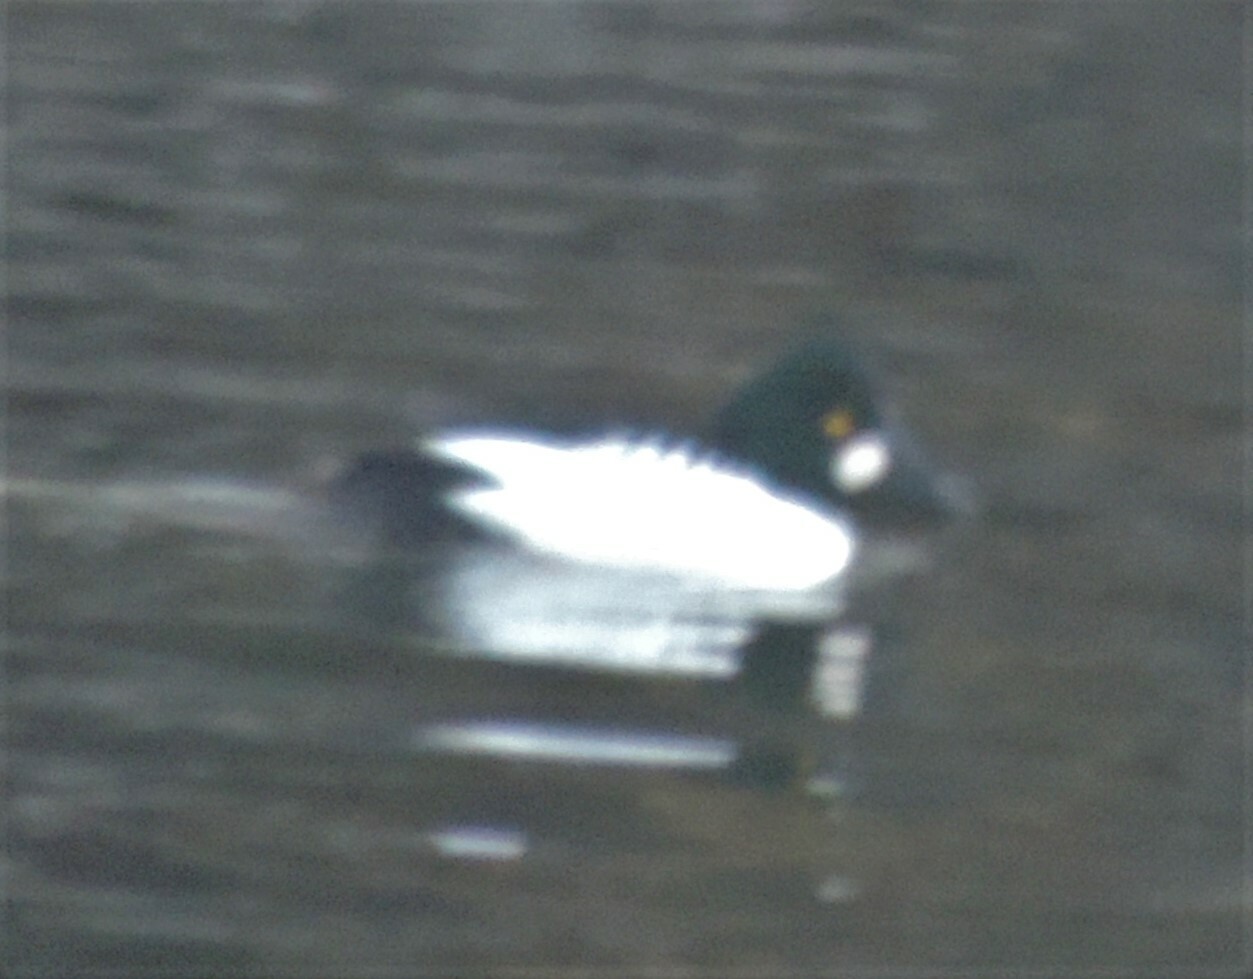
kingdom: Animalia
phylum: Chordata
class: Aves
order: Anseriformes
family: Anatidae
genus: Bucephala
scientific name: Bucephala clangula
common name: Common goldeneye
